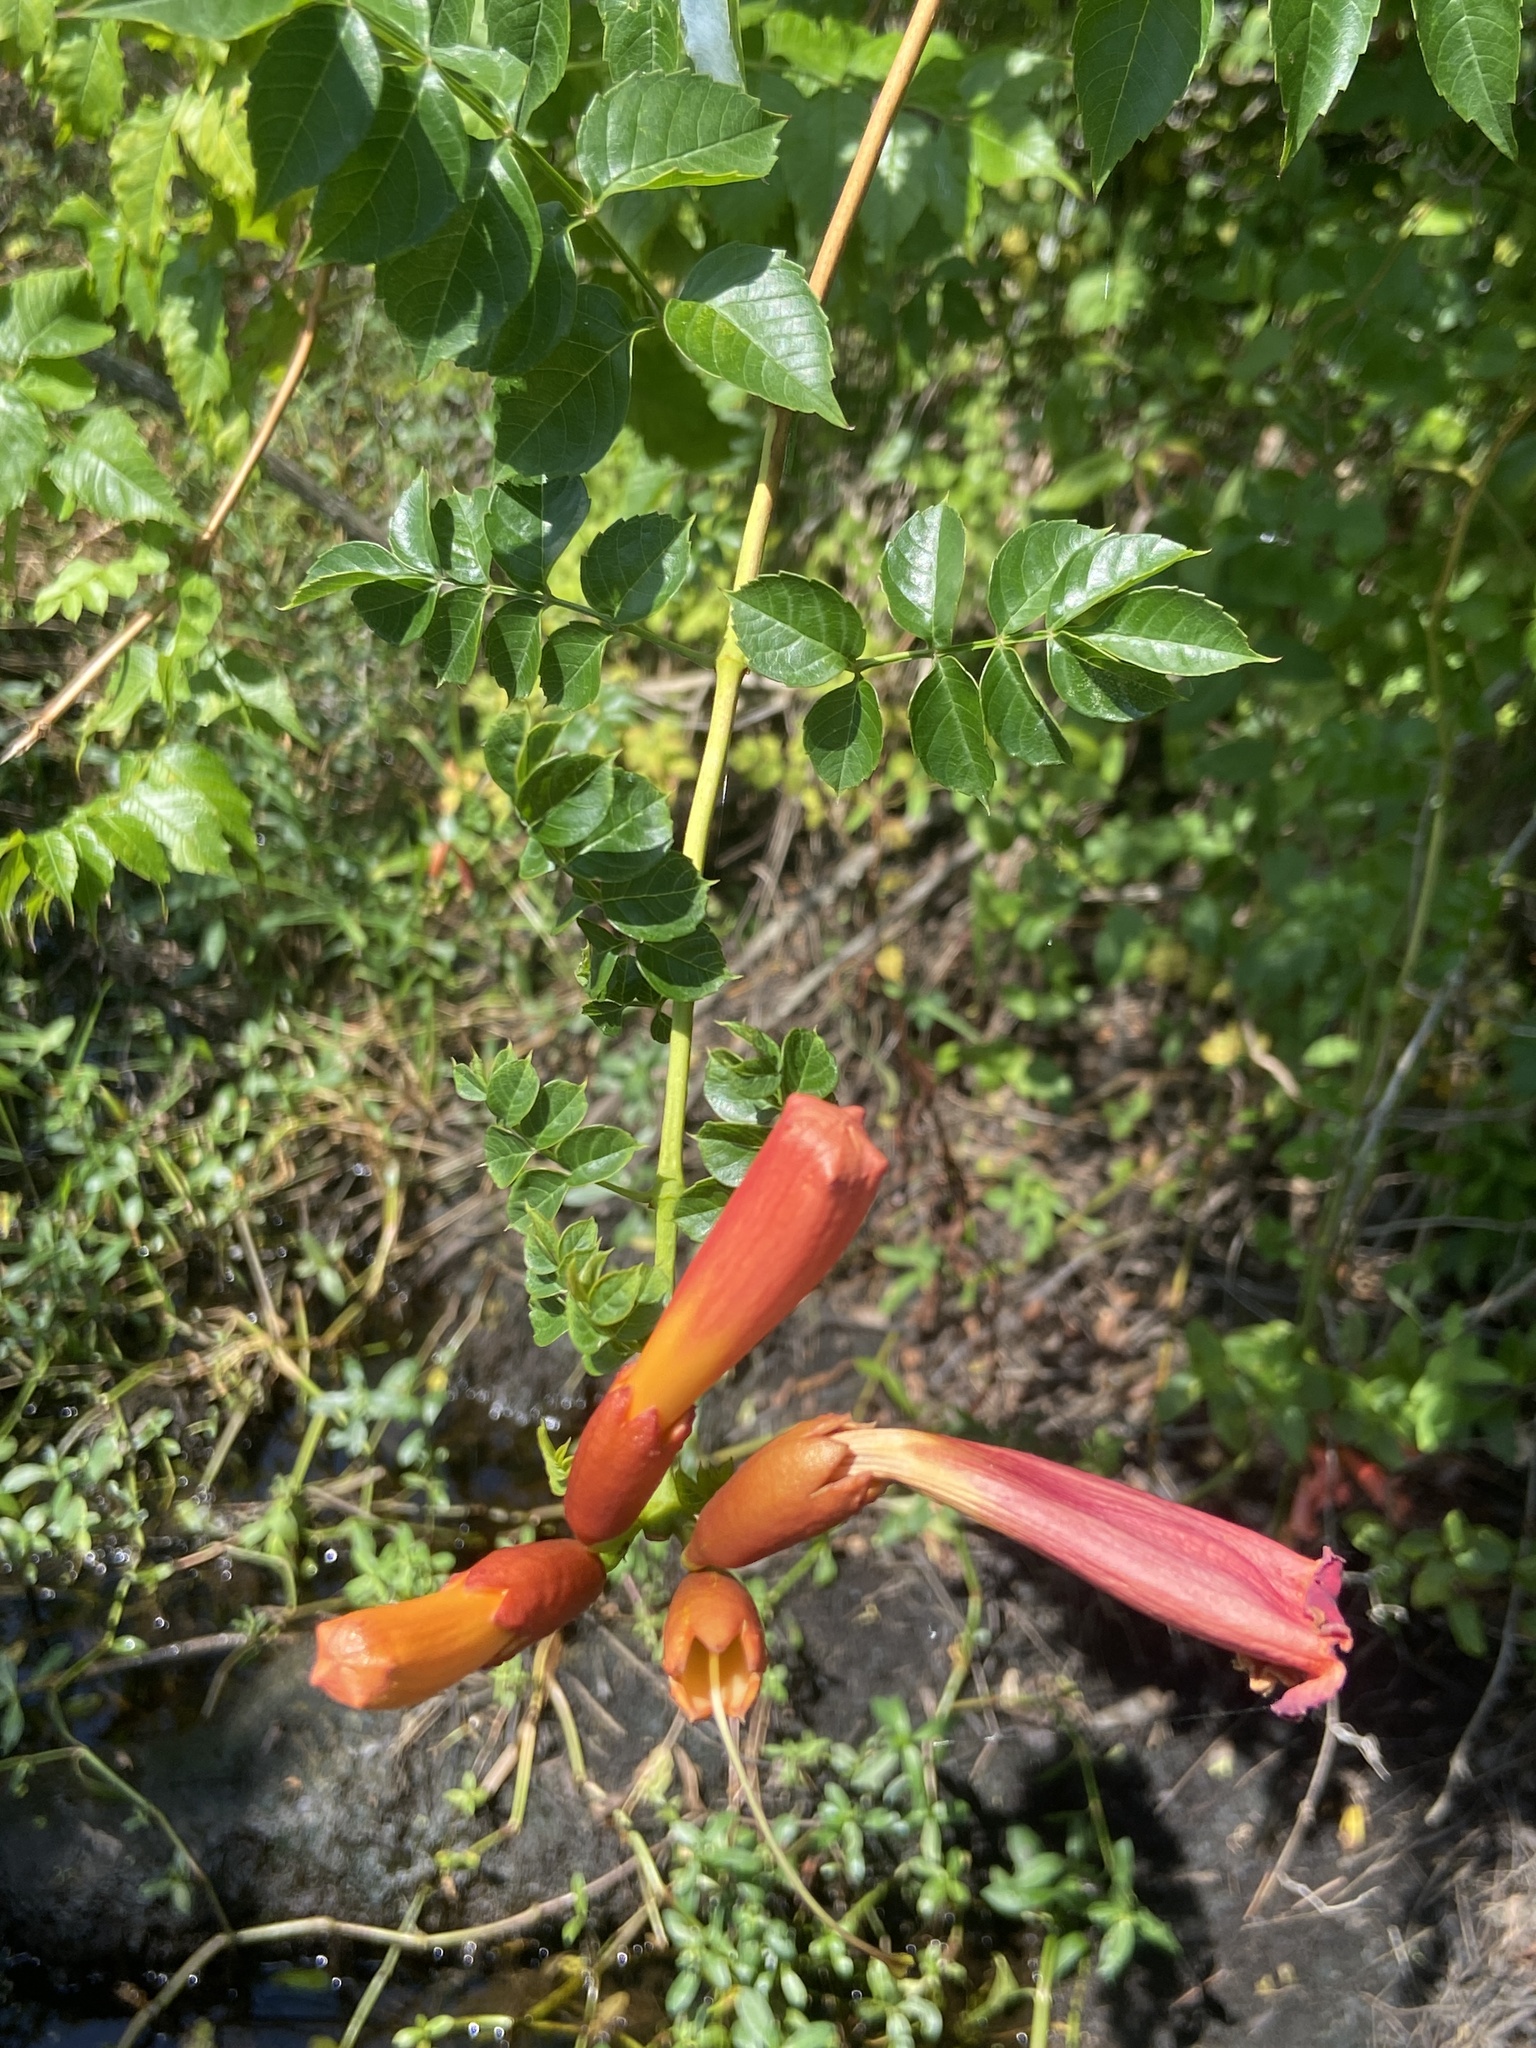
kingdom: Plantae
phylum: Tracheophyta
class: Magnoliopsida
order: Lamiales
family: Bignoniaceae
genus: Campsis
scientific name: Campsis radicans
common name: Trumpet-creeper
